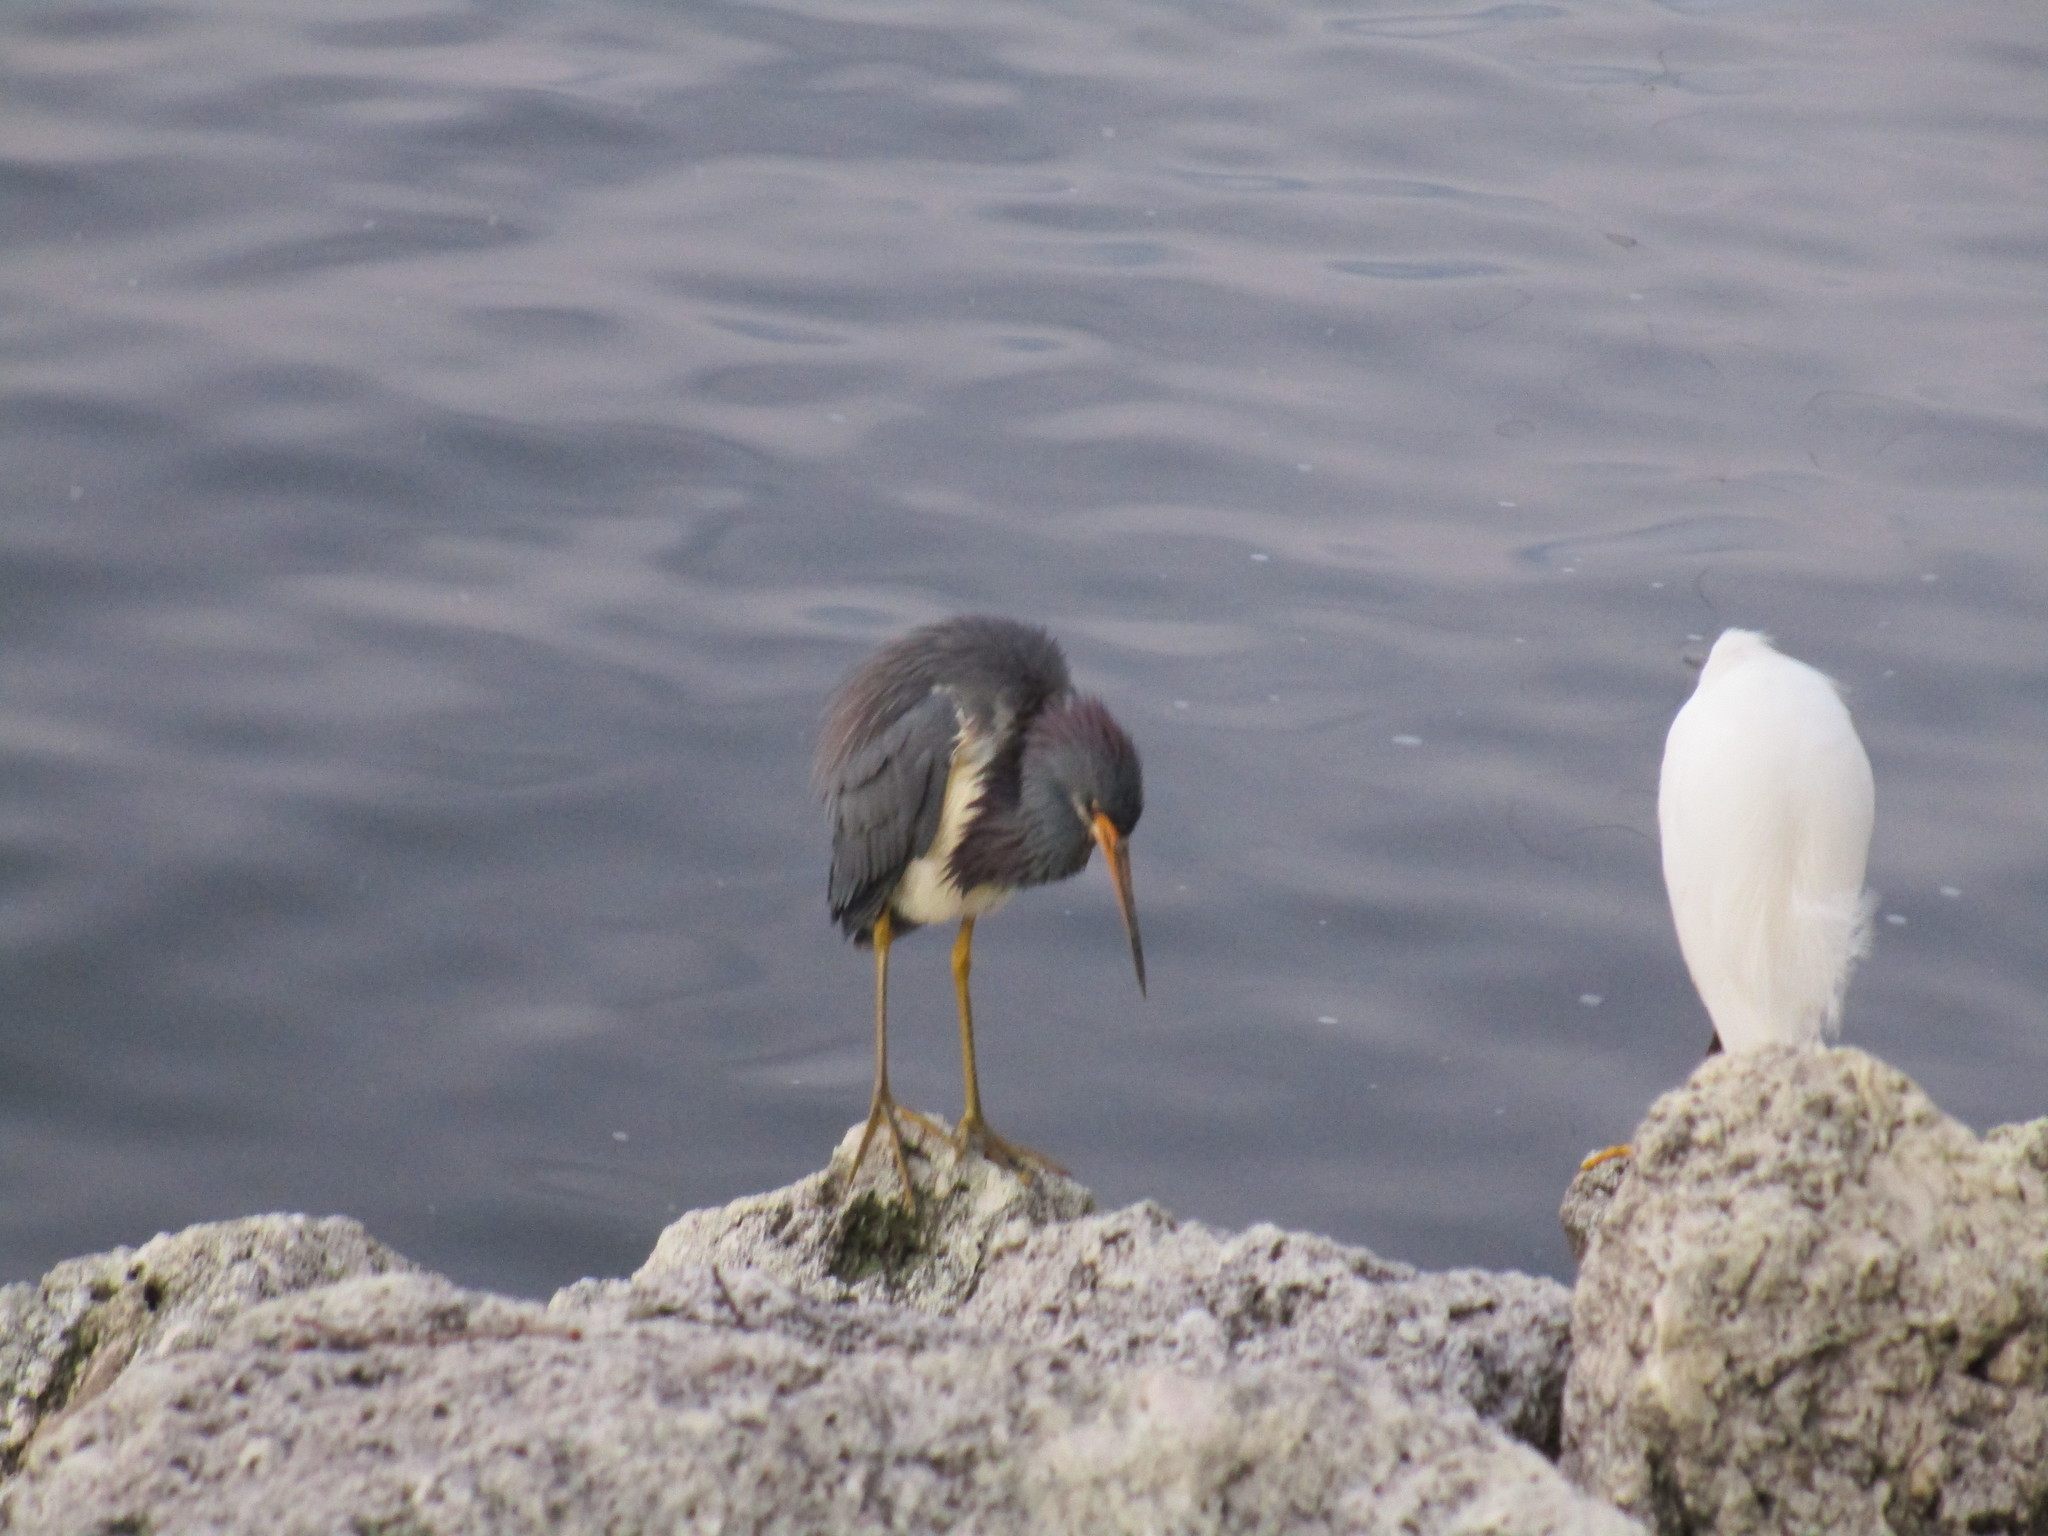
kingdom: Animalia
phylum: Chordata
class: Aves
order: Pelecaniformes
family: Ardeidae
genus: Egretta
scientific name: Egretta tricolor
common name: Tricolored heron
